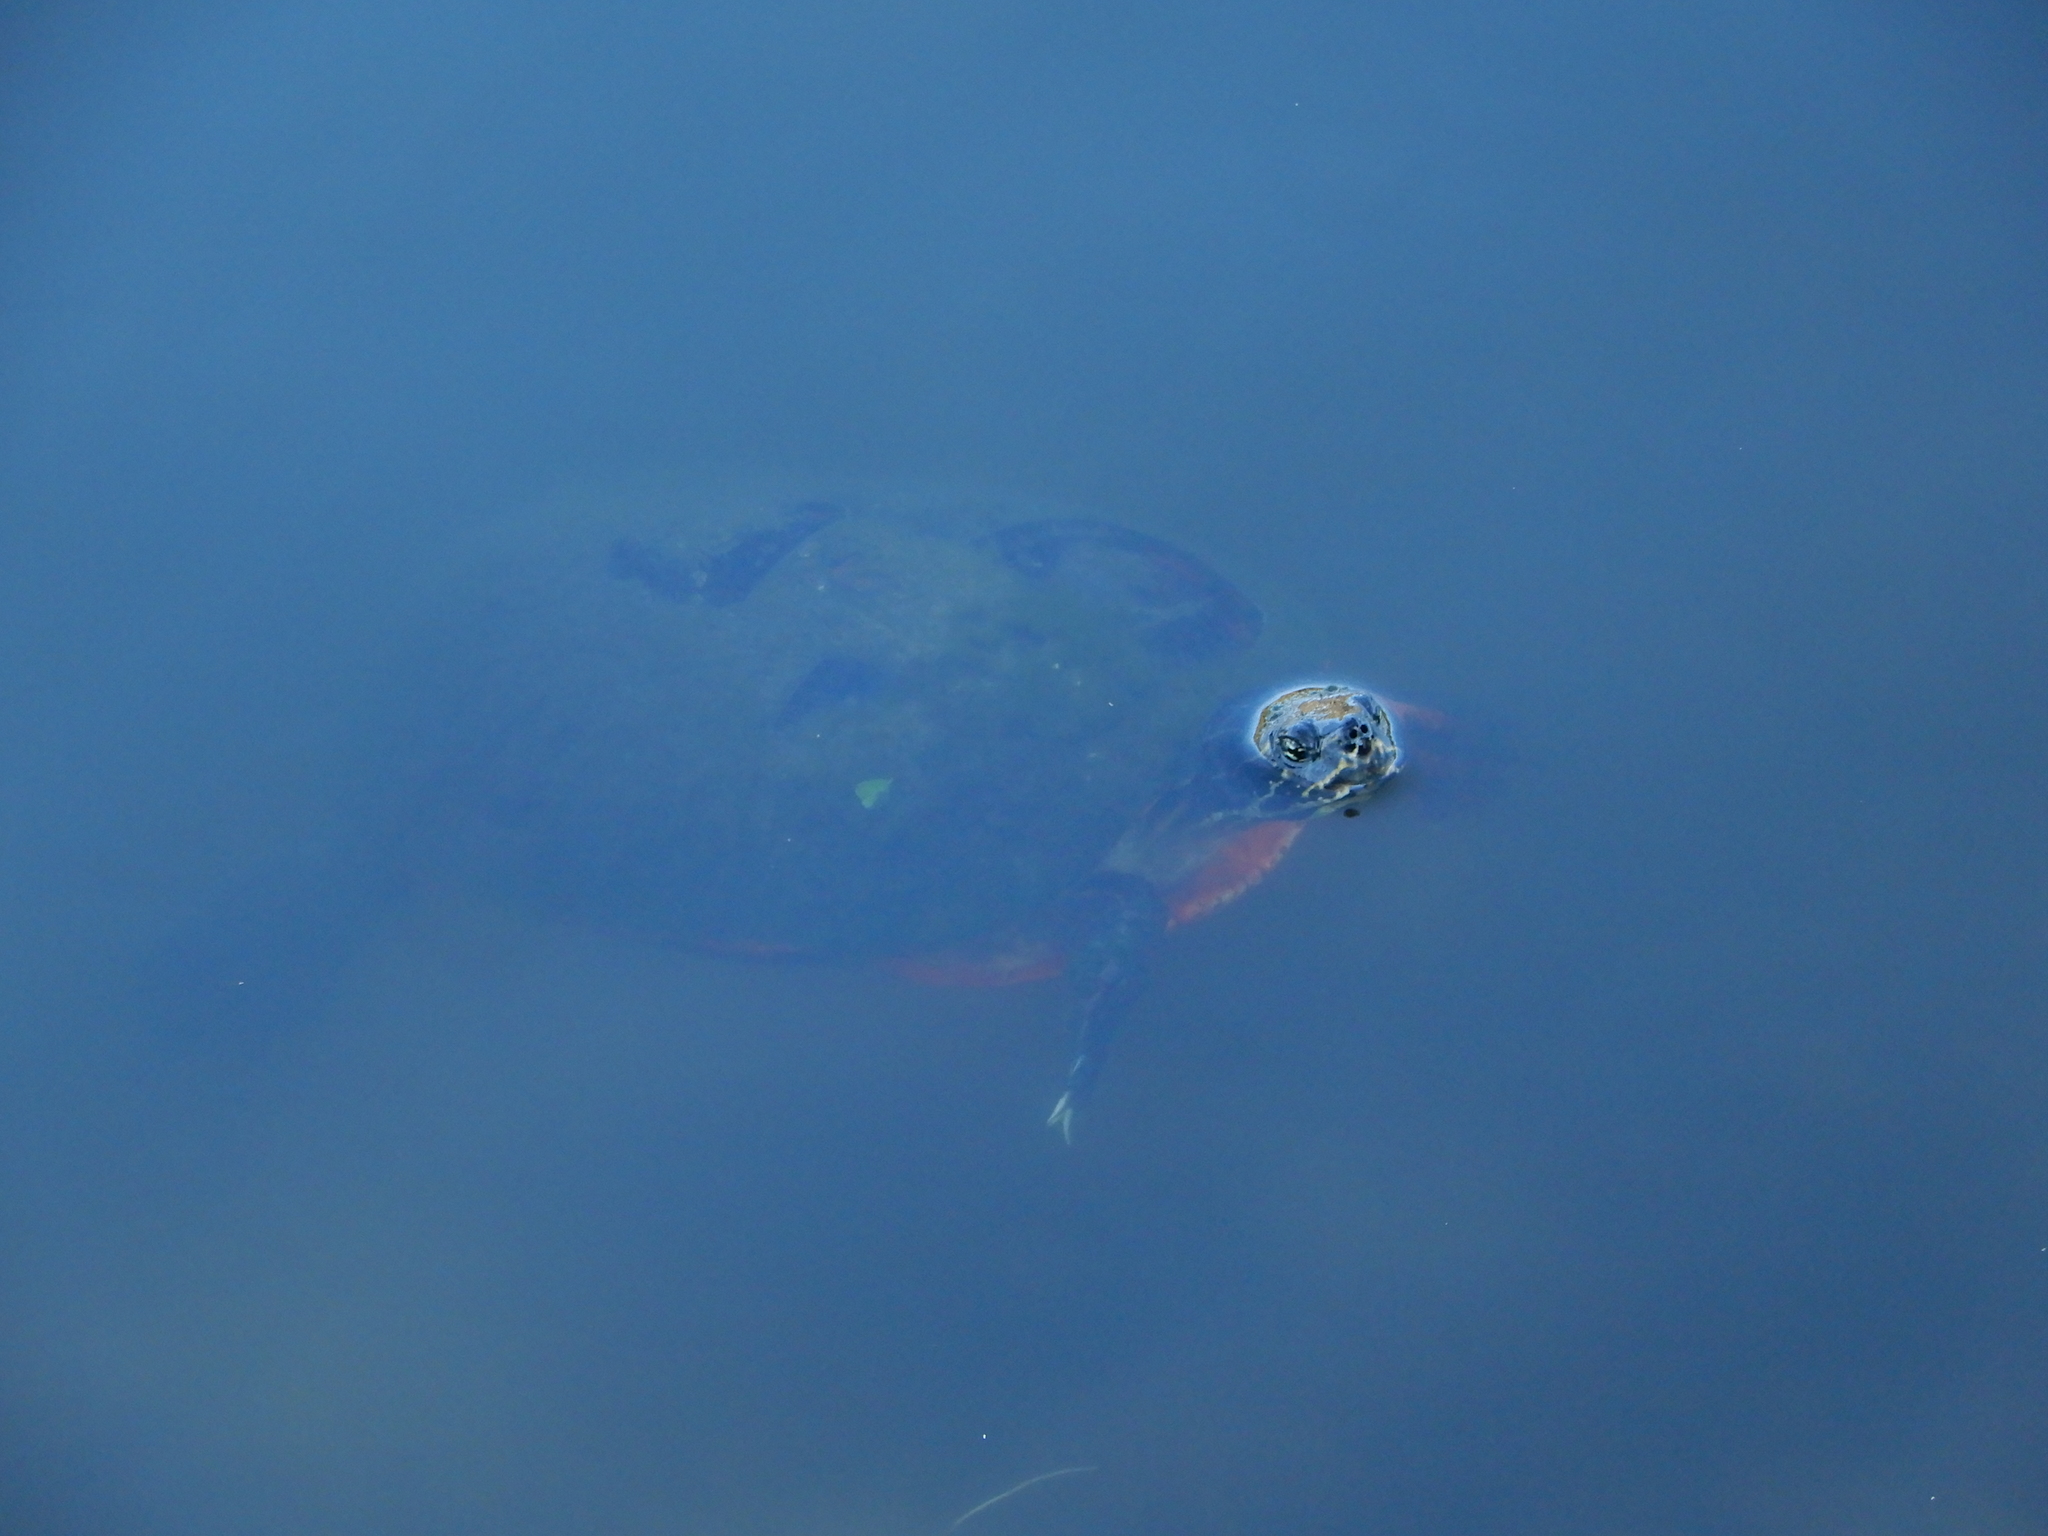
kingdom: Animalia
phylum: Chordata
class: Testudines
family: Emydidae
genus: Pseudemys
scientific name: Pseudemys nelsoni
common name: Florida red-bellied turtle
